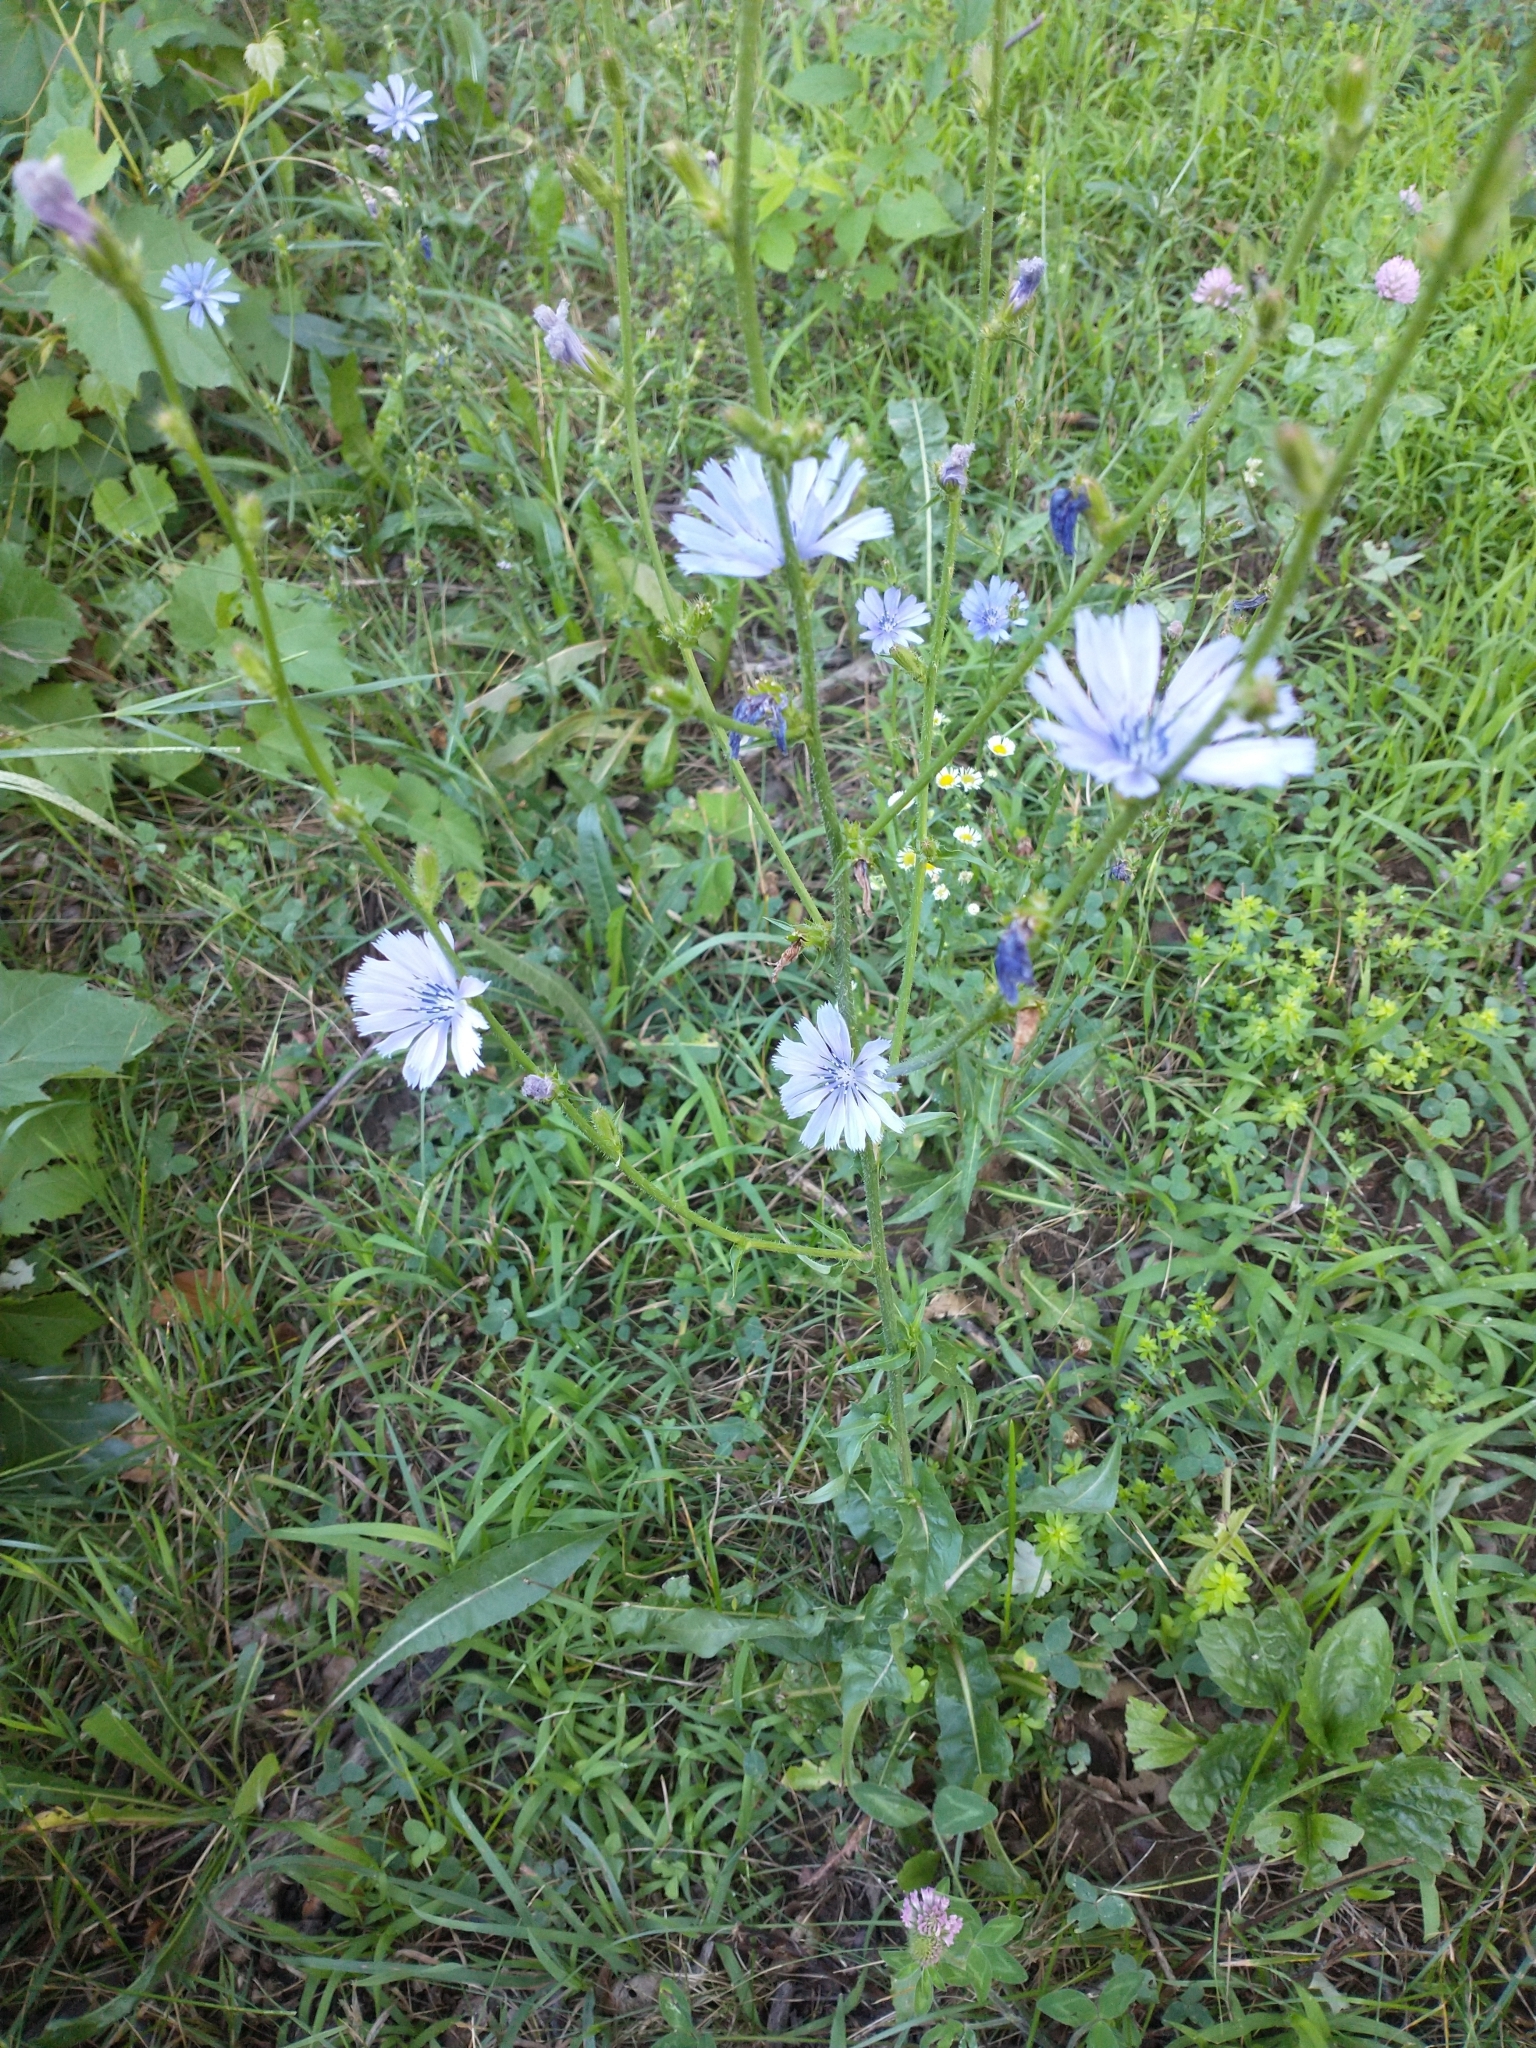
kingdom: Plantae
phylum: Tracheophyta
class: Magnoliopsida
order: Asterales
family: Asteraceae
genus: Cichorium
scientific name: Cichorium intybus
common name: Chicory
